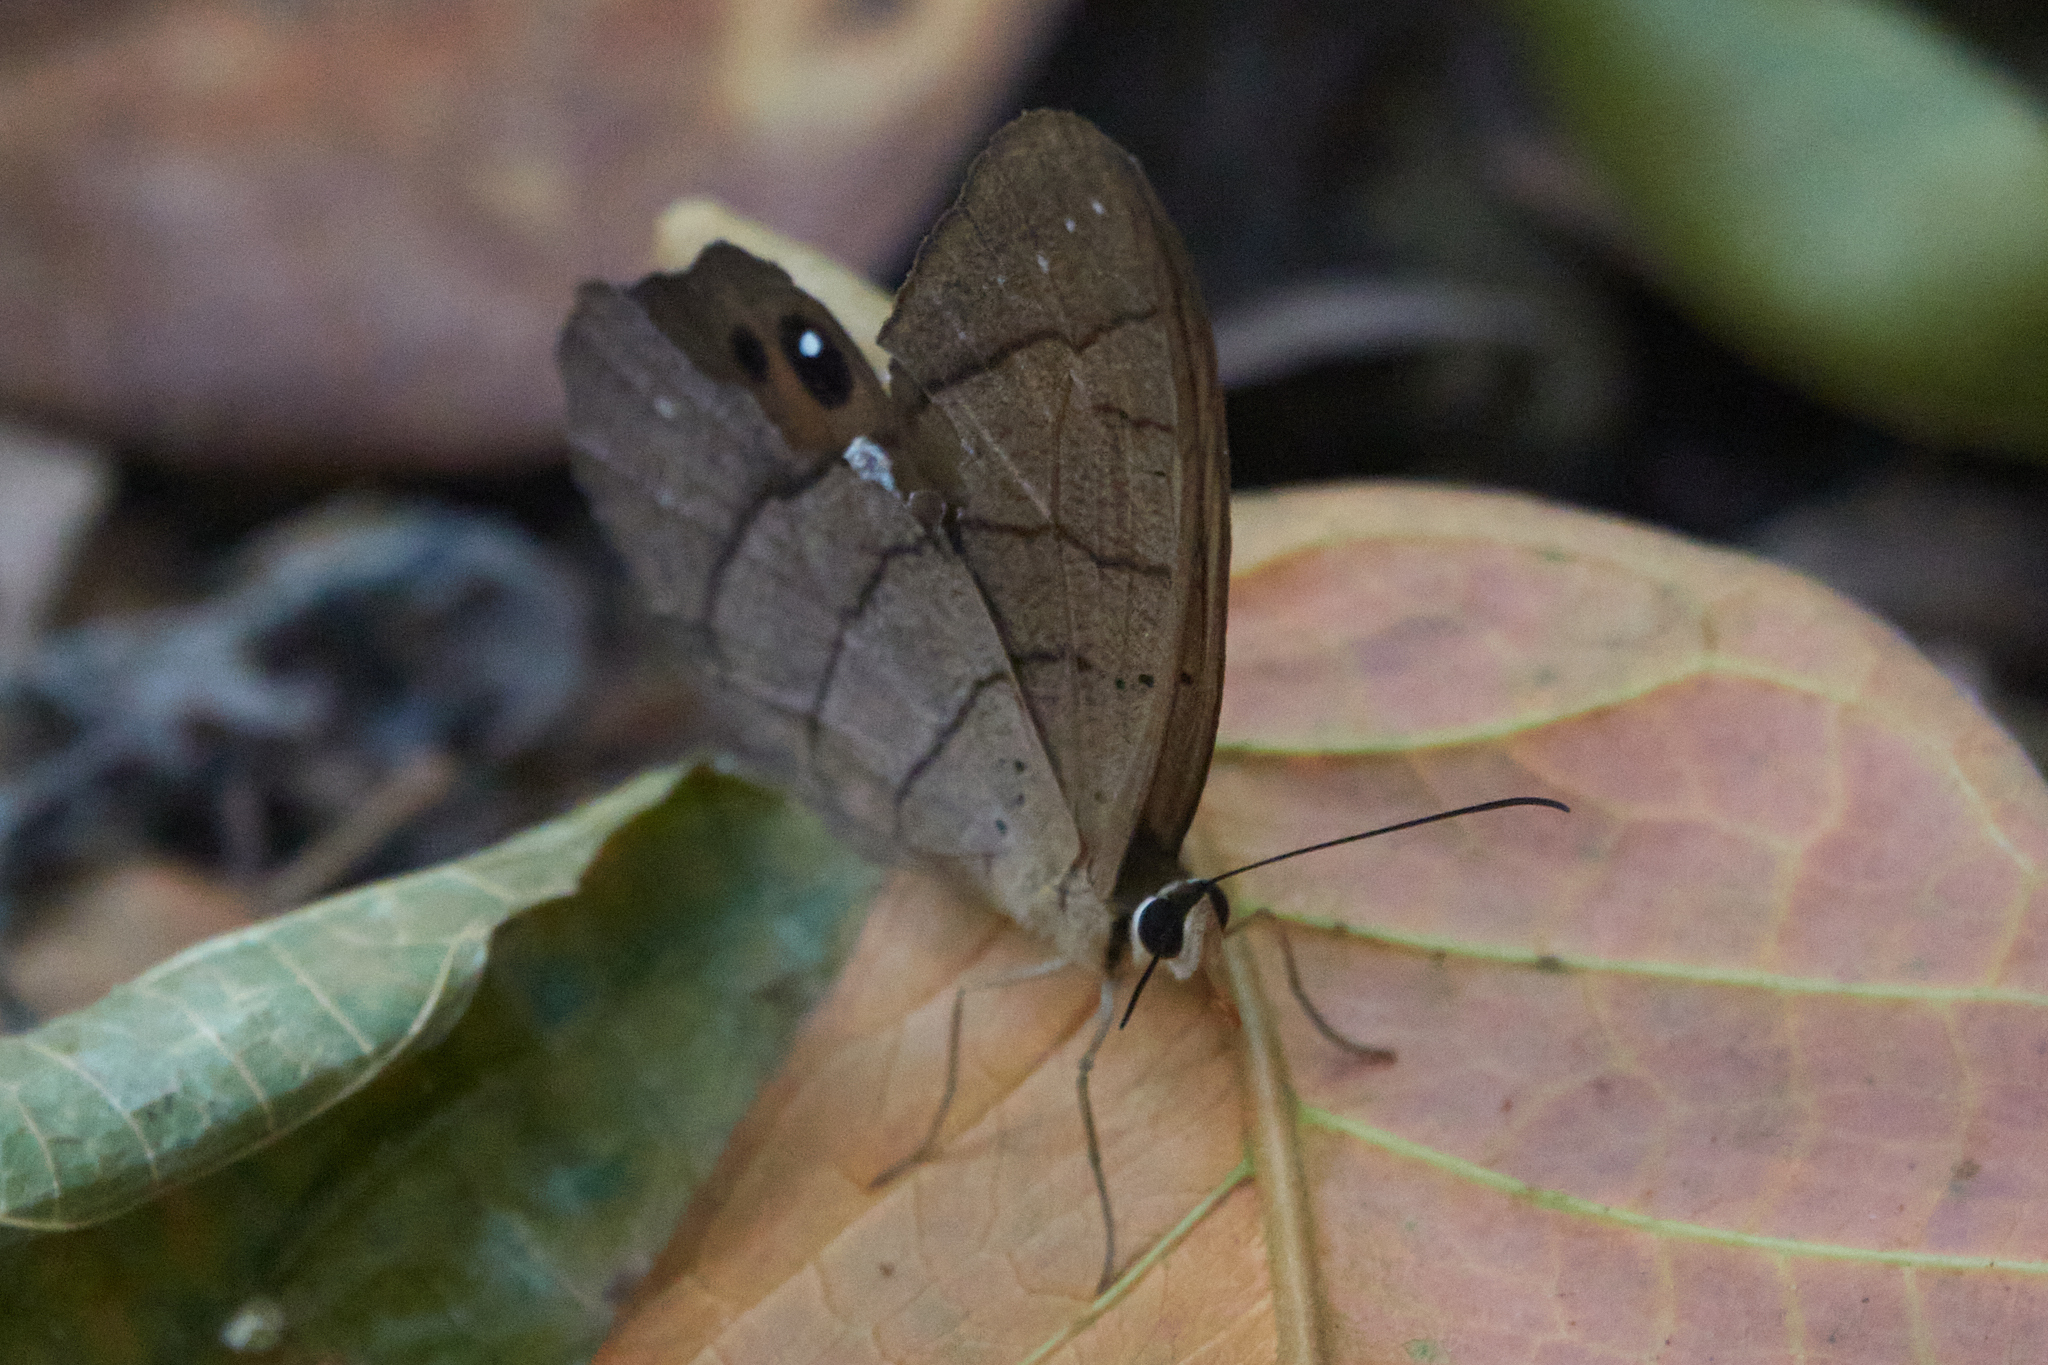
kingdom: Animalia
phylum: Arthropoda
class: Insecta
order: Lepidoptera
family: Nymphalidae
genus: Pierella
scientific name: Pierella luna
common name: Moon satyr
